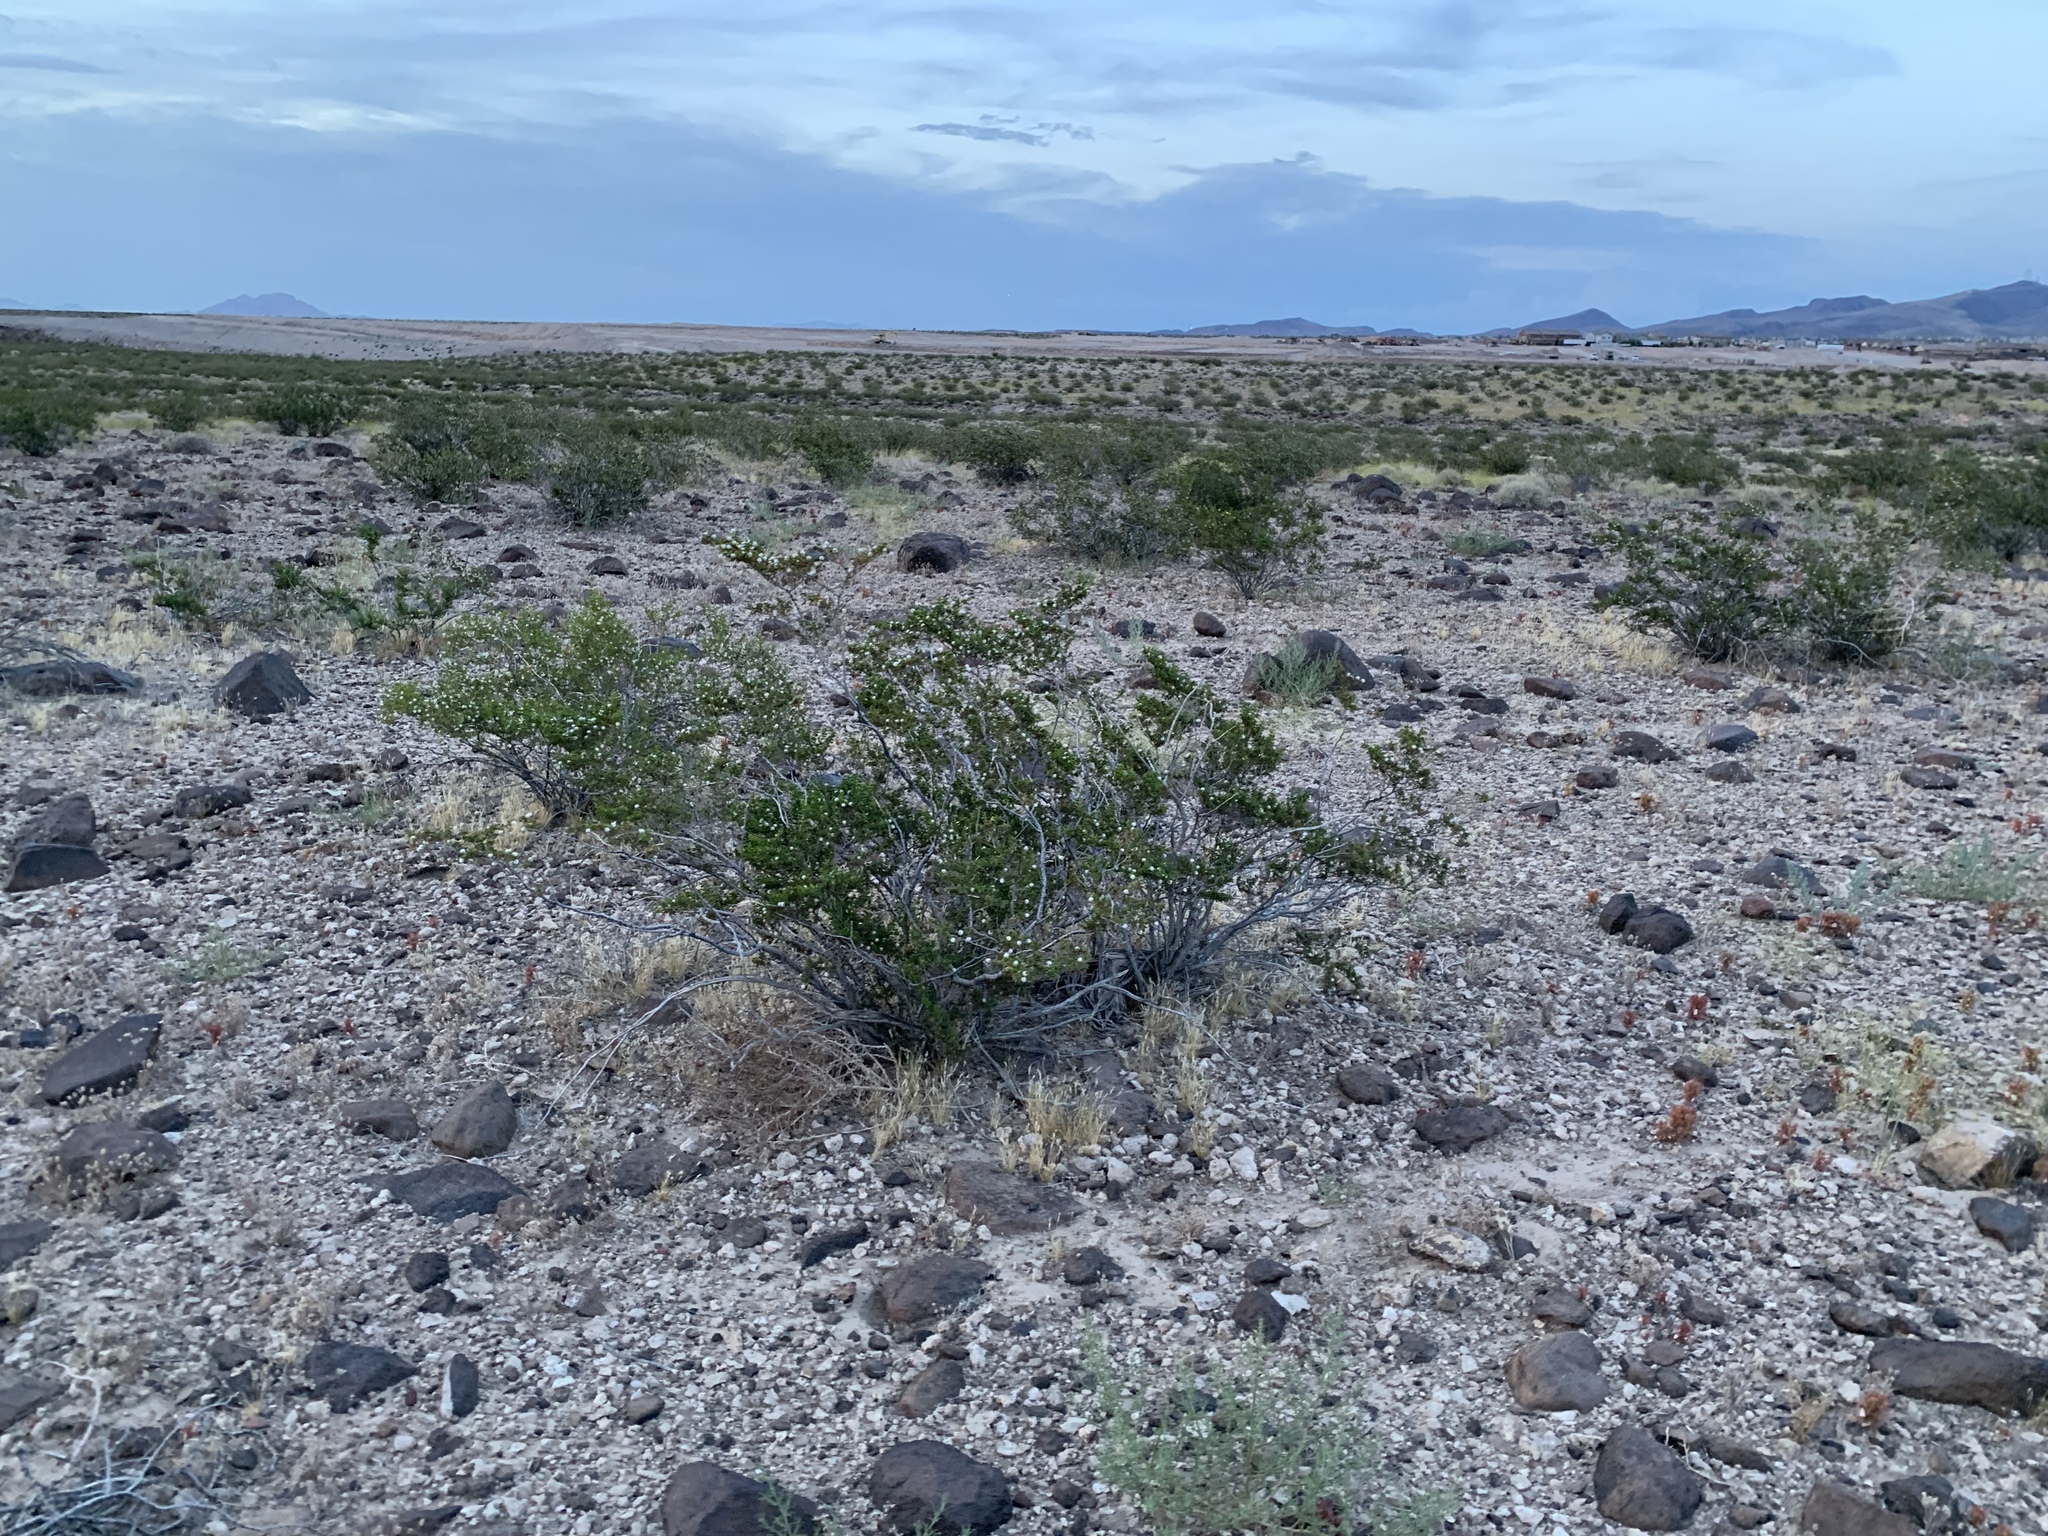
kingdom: Plantae
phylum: Tracheophyta
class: Magnoliopsida
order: Zygophyllales
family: Zygophyllaceae
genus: Larrea
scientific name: Larrea tridentata
